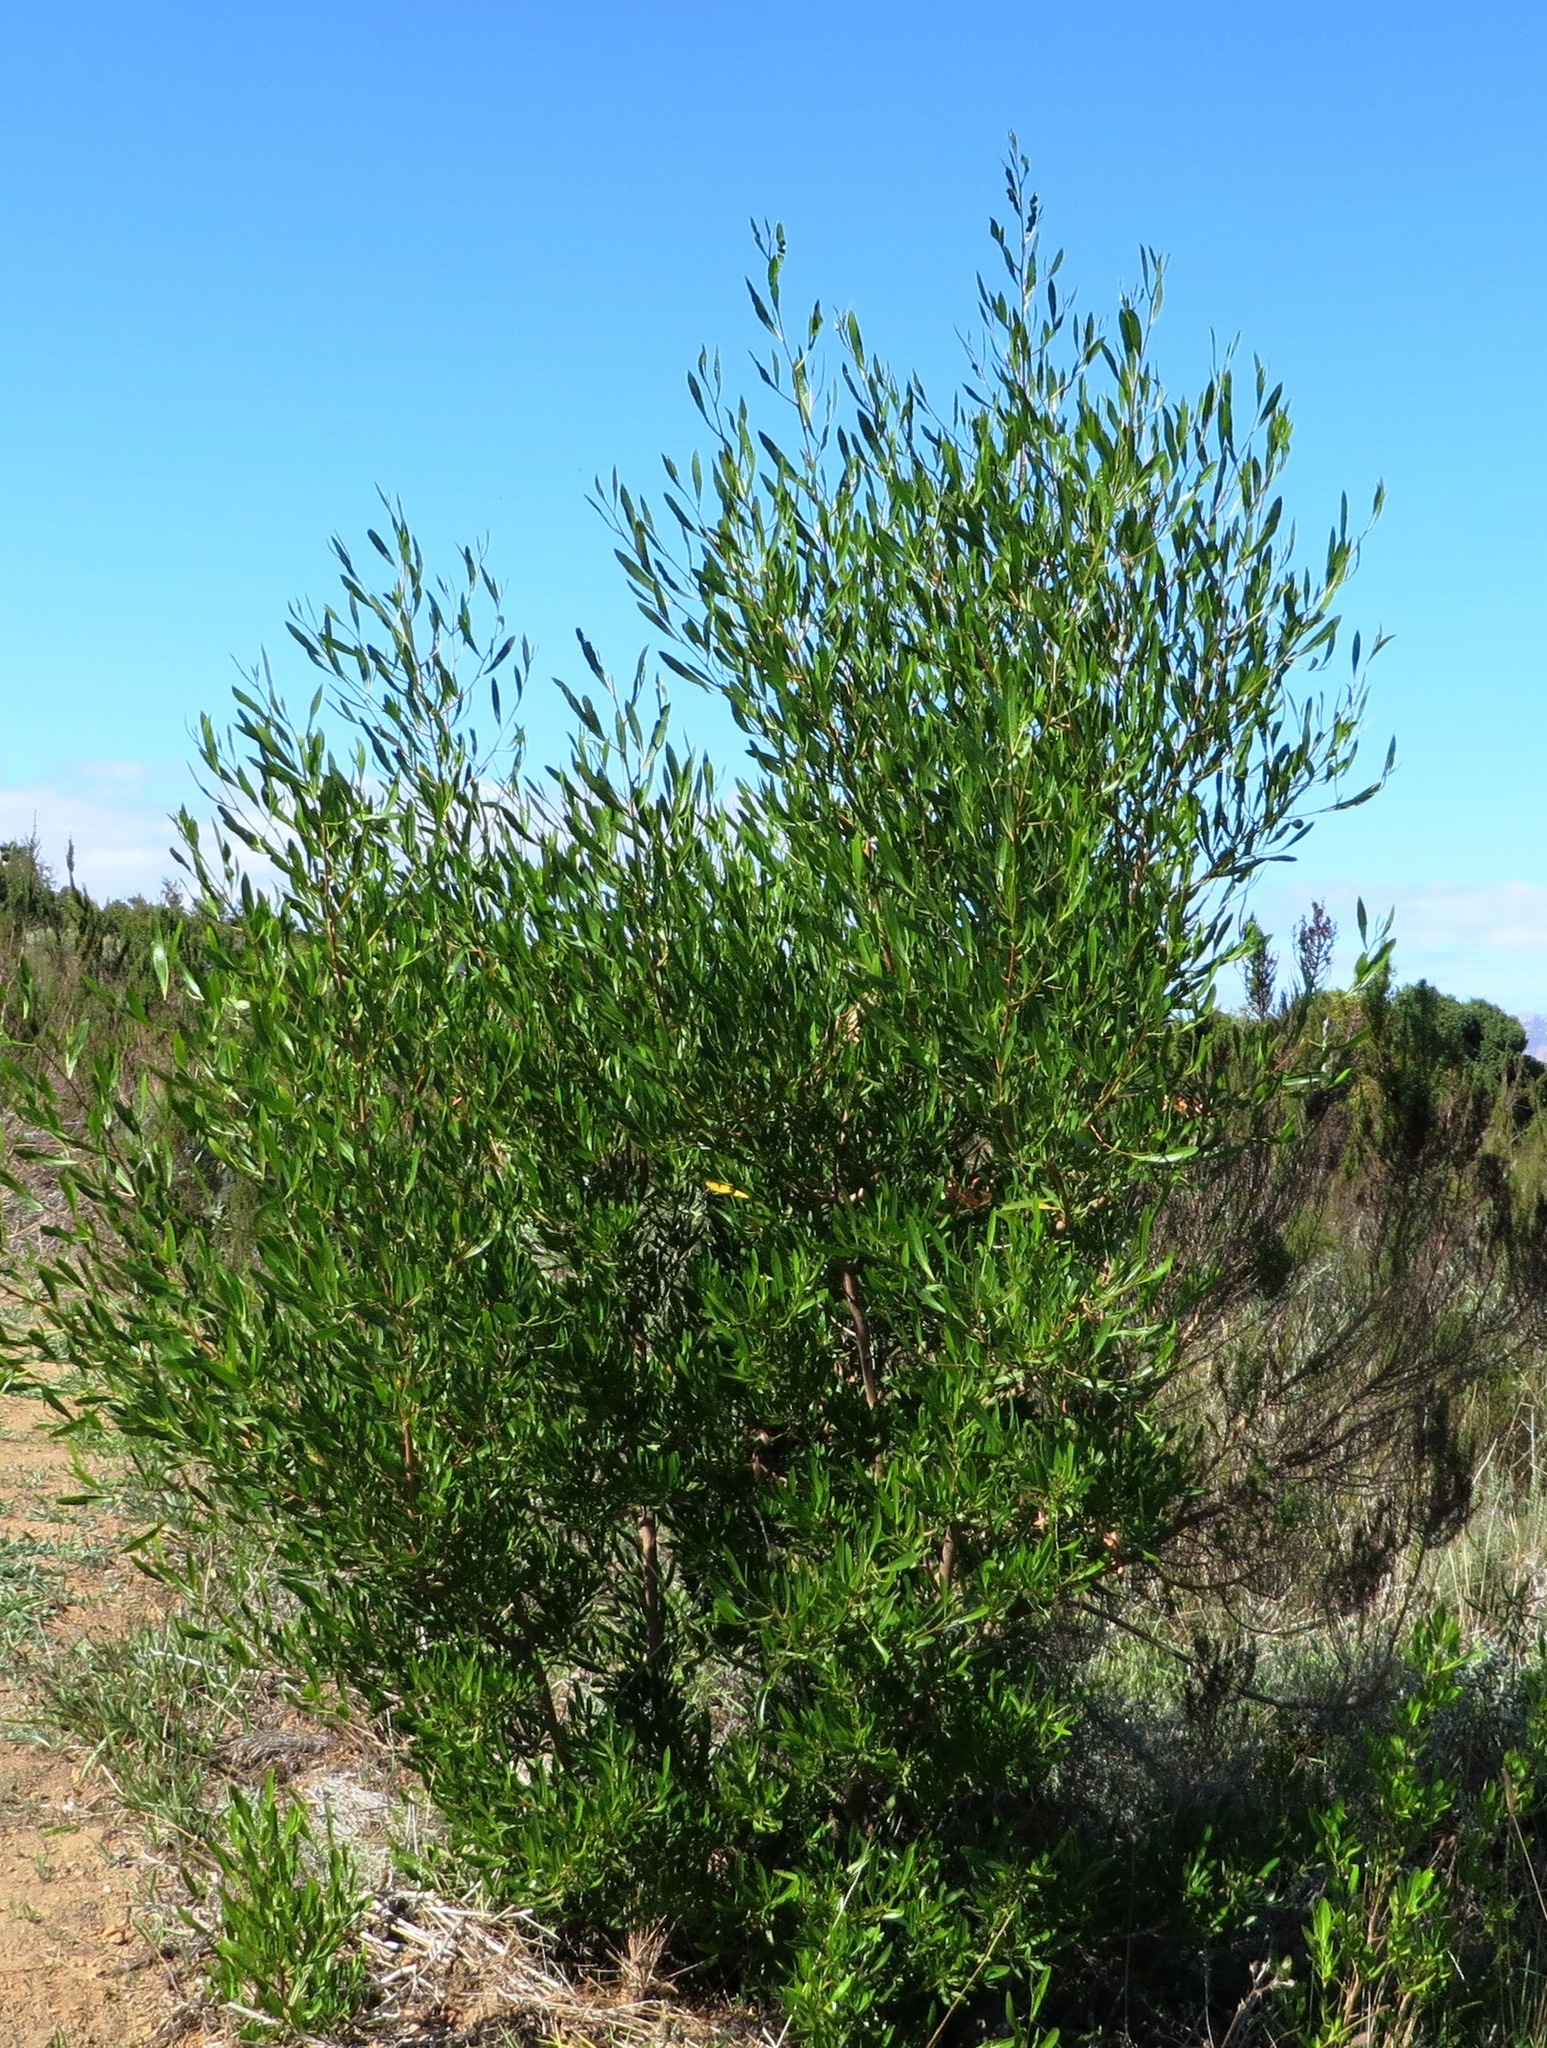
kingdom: Plantae
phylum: Tracheophyta
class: Magnoliopsida
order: Sapindales
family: Sapindaceae
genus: Dodonaea
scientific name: Dodonaea viscosa
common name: Hopbush
